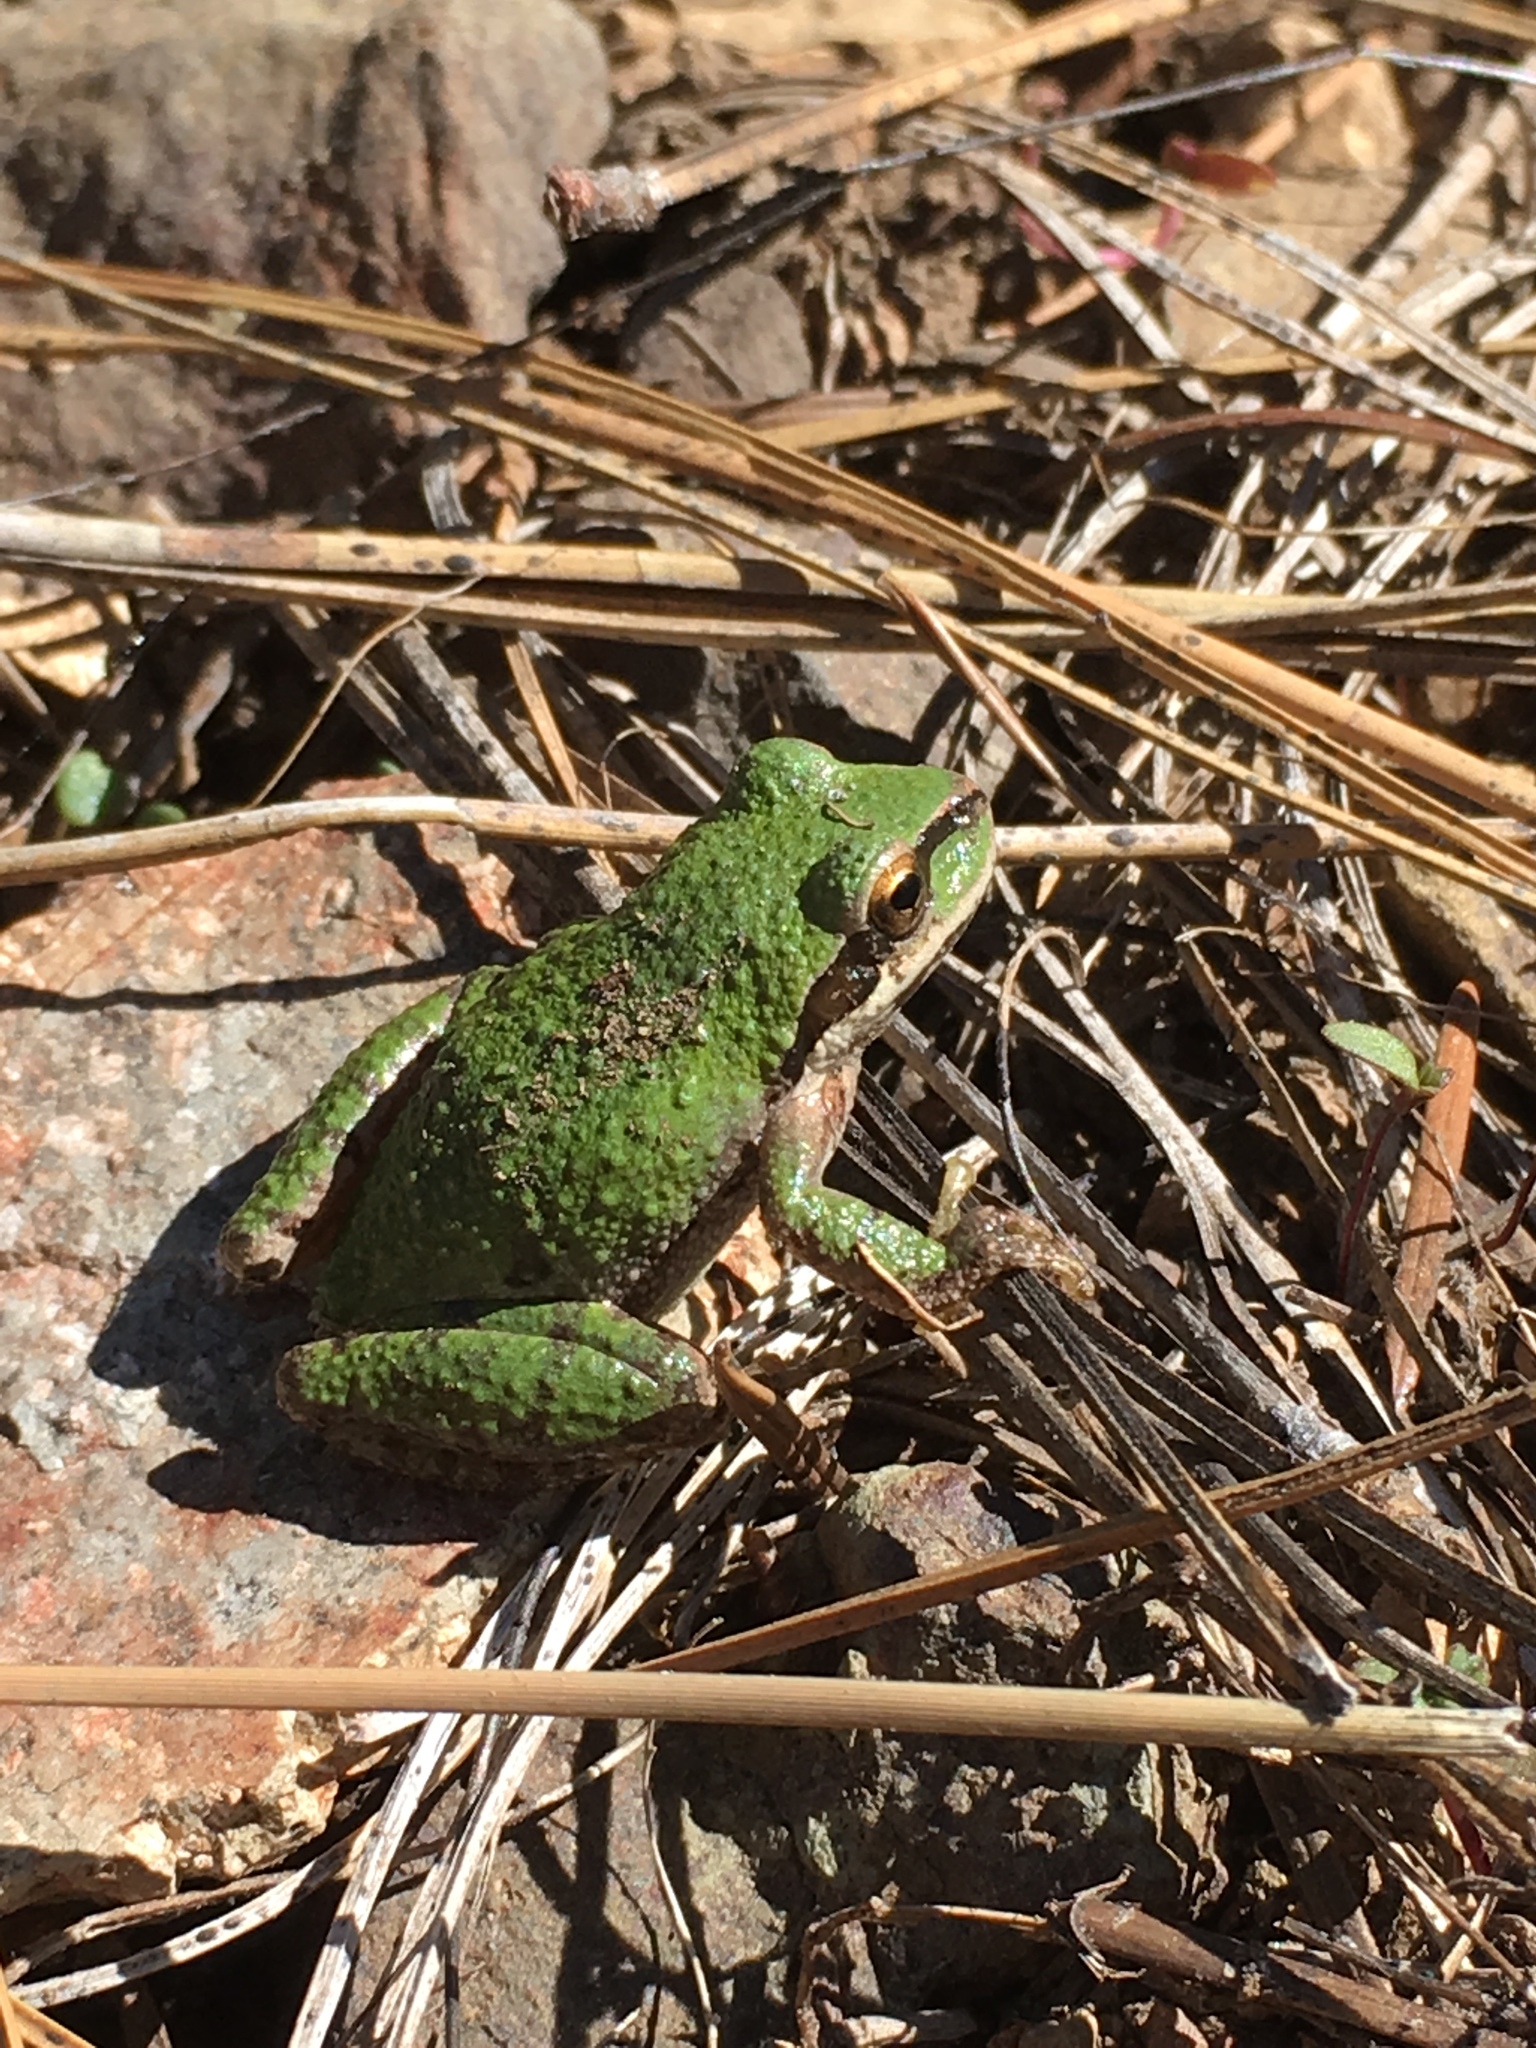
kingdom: Animalia
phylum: Chordata
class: Amphibia
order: Anura
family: Hylidae
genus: Pseudacris
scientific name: Pseudacris regilla
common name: Pacific chorus frog
